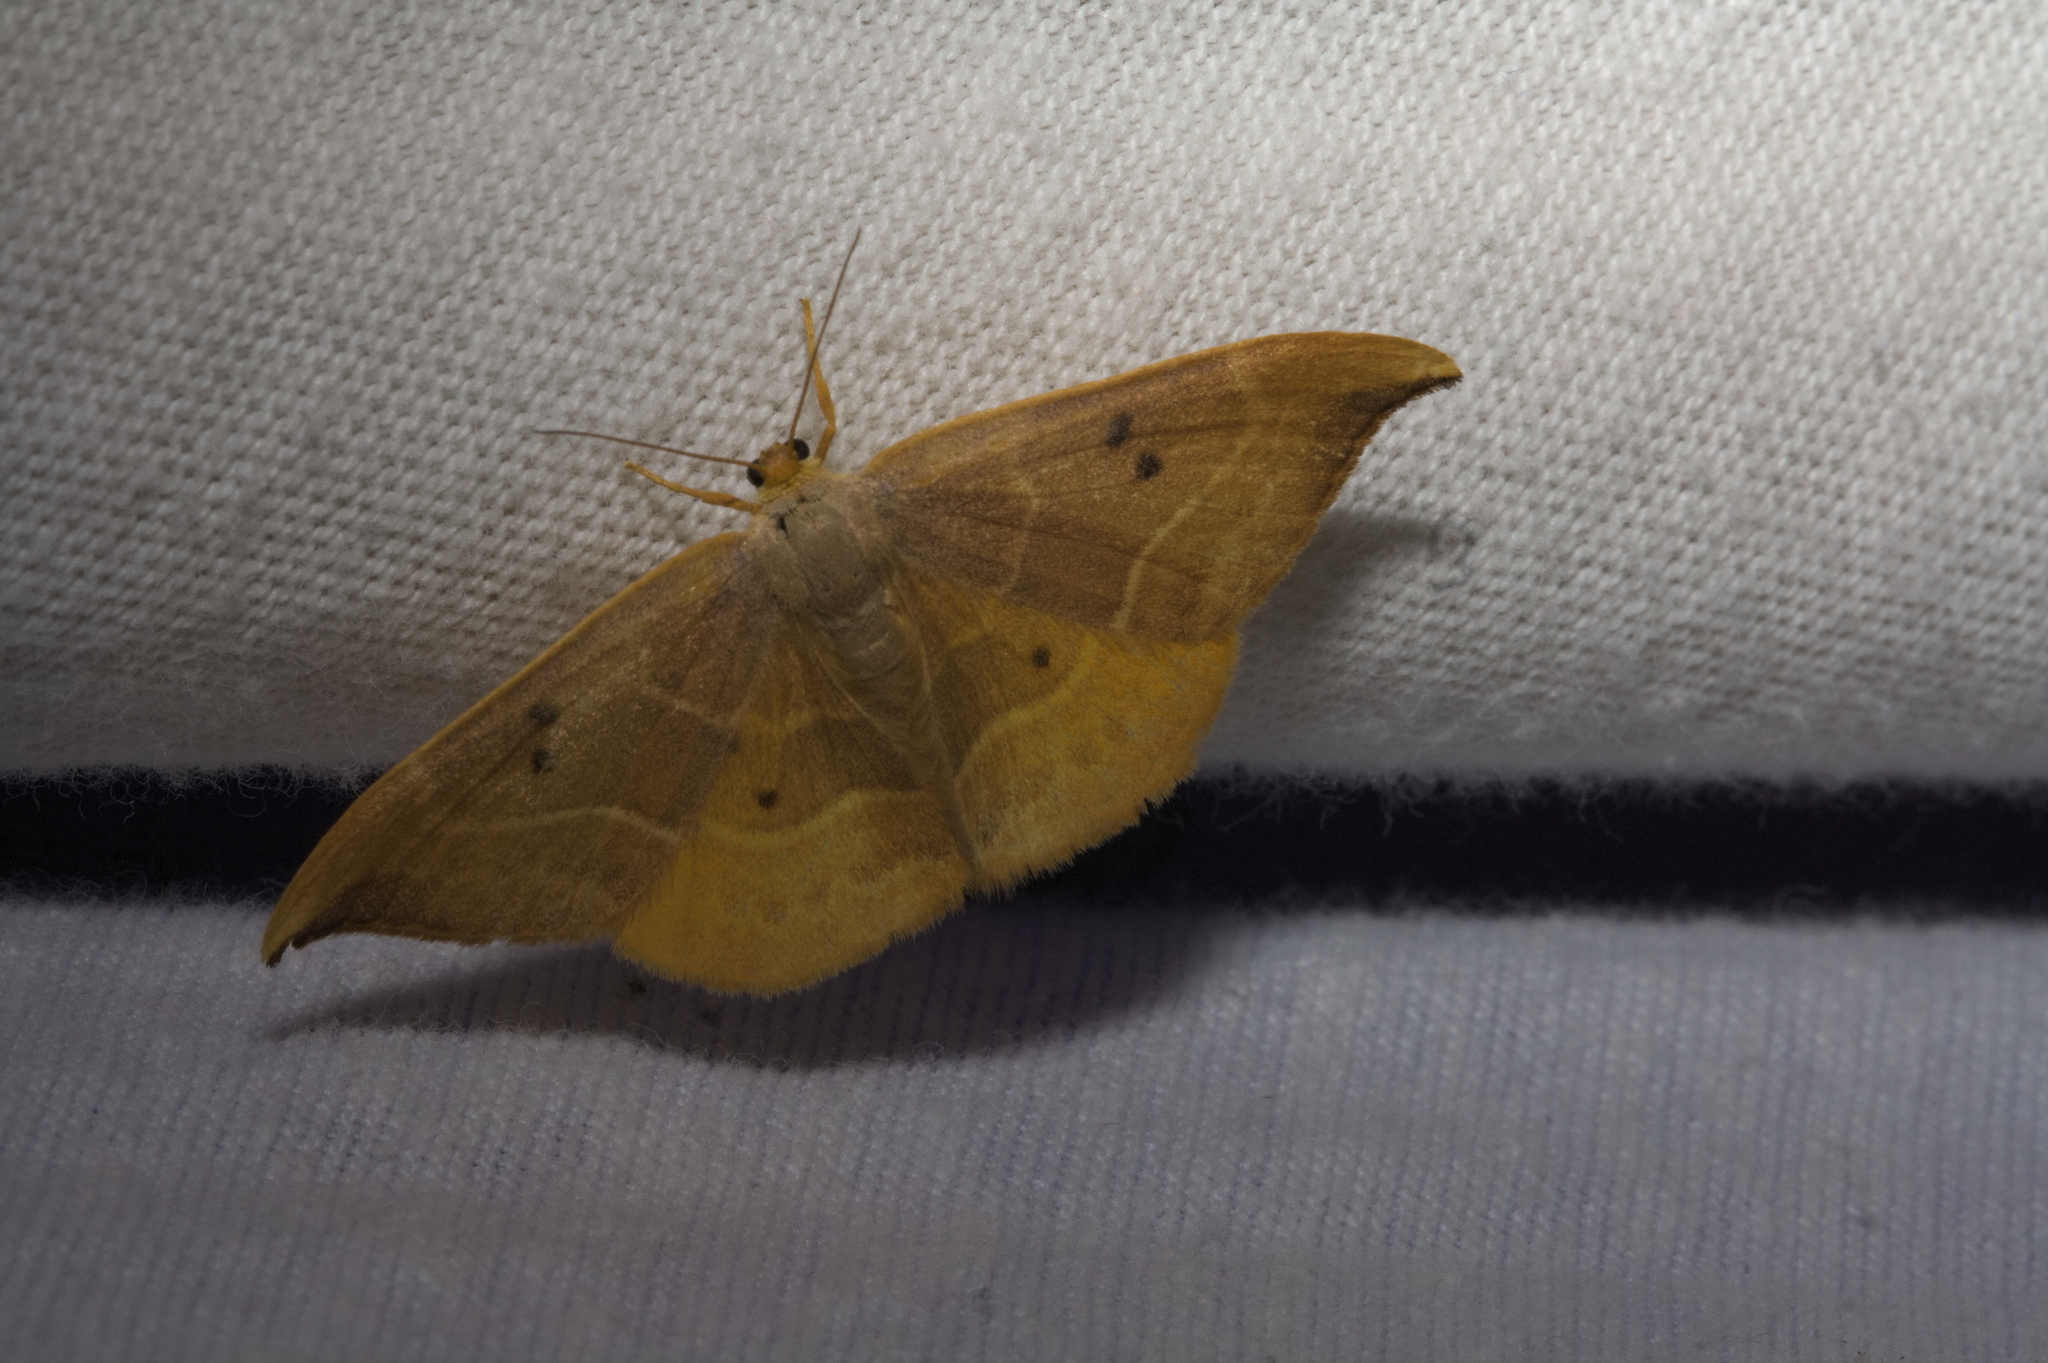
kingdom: Animalia
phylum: Arthropoda
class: Insecta
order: Lepidoptera
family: Drepanidae
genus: Watsonalla
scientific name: Watsonalla binaria
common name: Oak hook-tip
